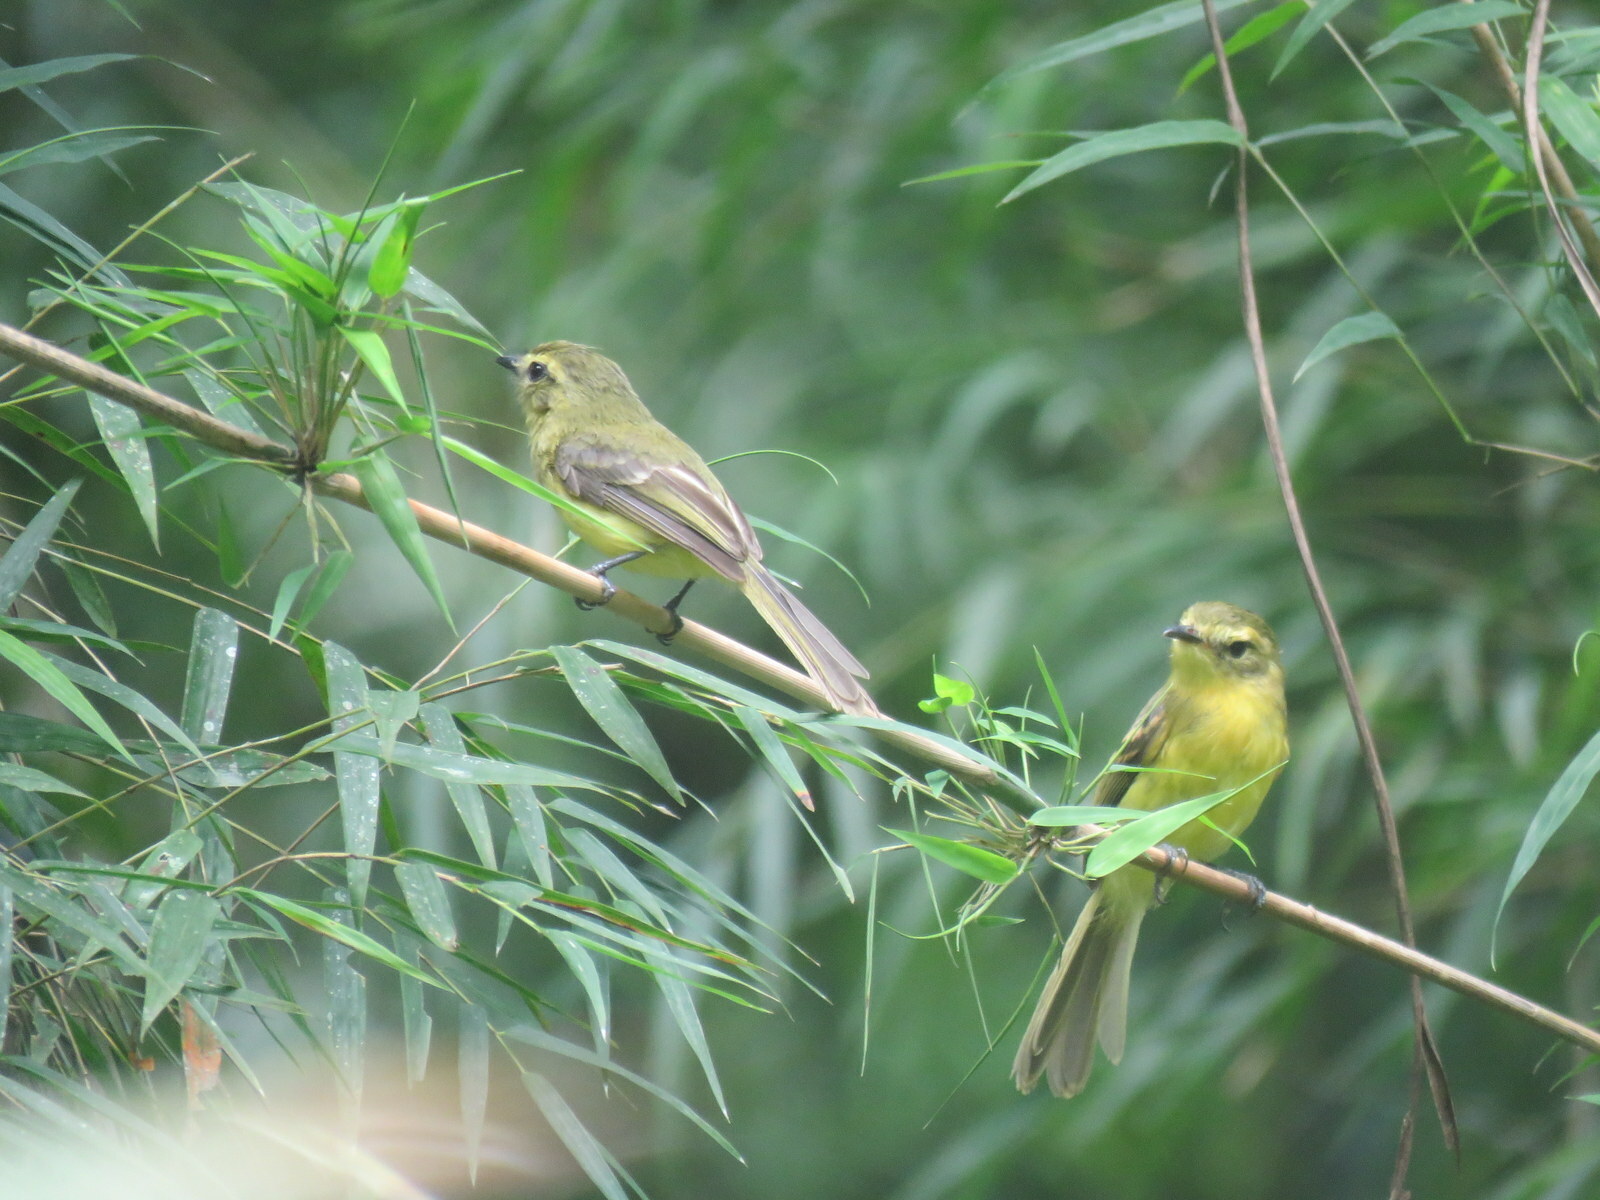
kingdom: Animalia
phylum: Chordata
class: Aves
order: Passeriformes
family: Tyrannidae
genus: Capsiempis
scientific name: Capsiempis flaveola
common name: Yellow tyrannulet
